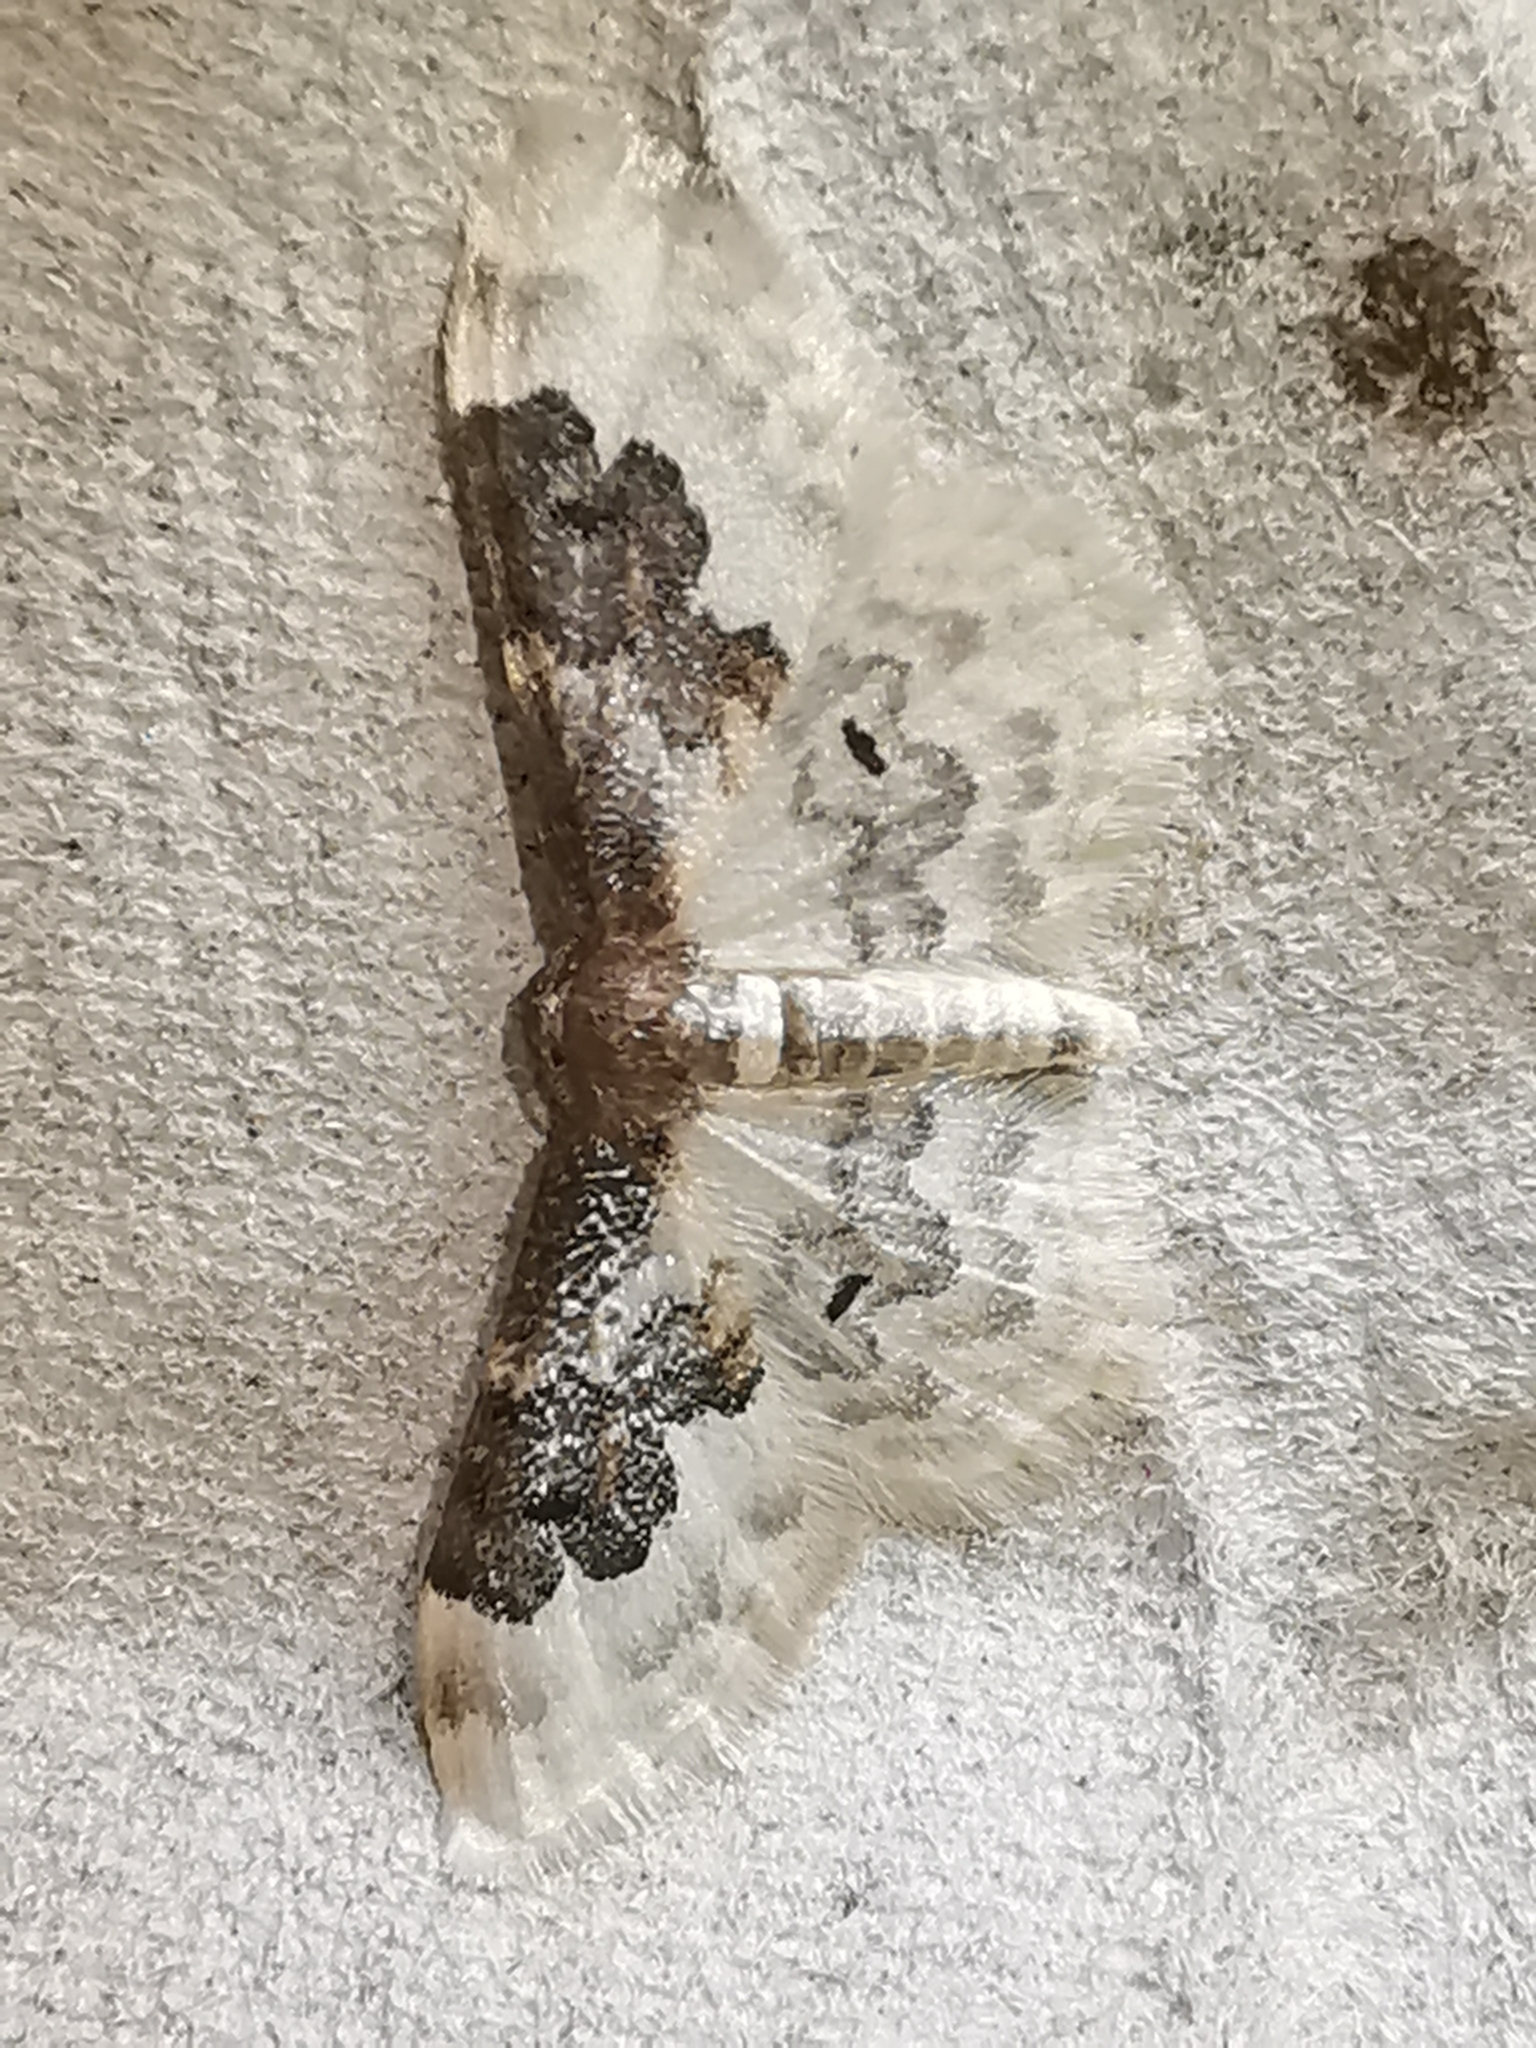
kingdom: Animalia
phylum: Arthropoda
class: Insecta
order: Lepidoptera
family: Geometridae
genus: Idaea
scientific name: Idaea rusticata
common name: Least carpet
